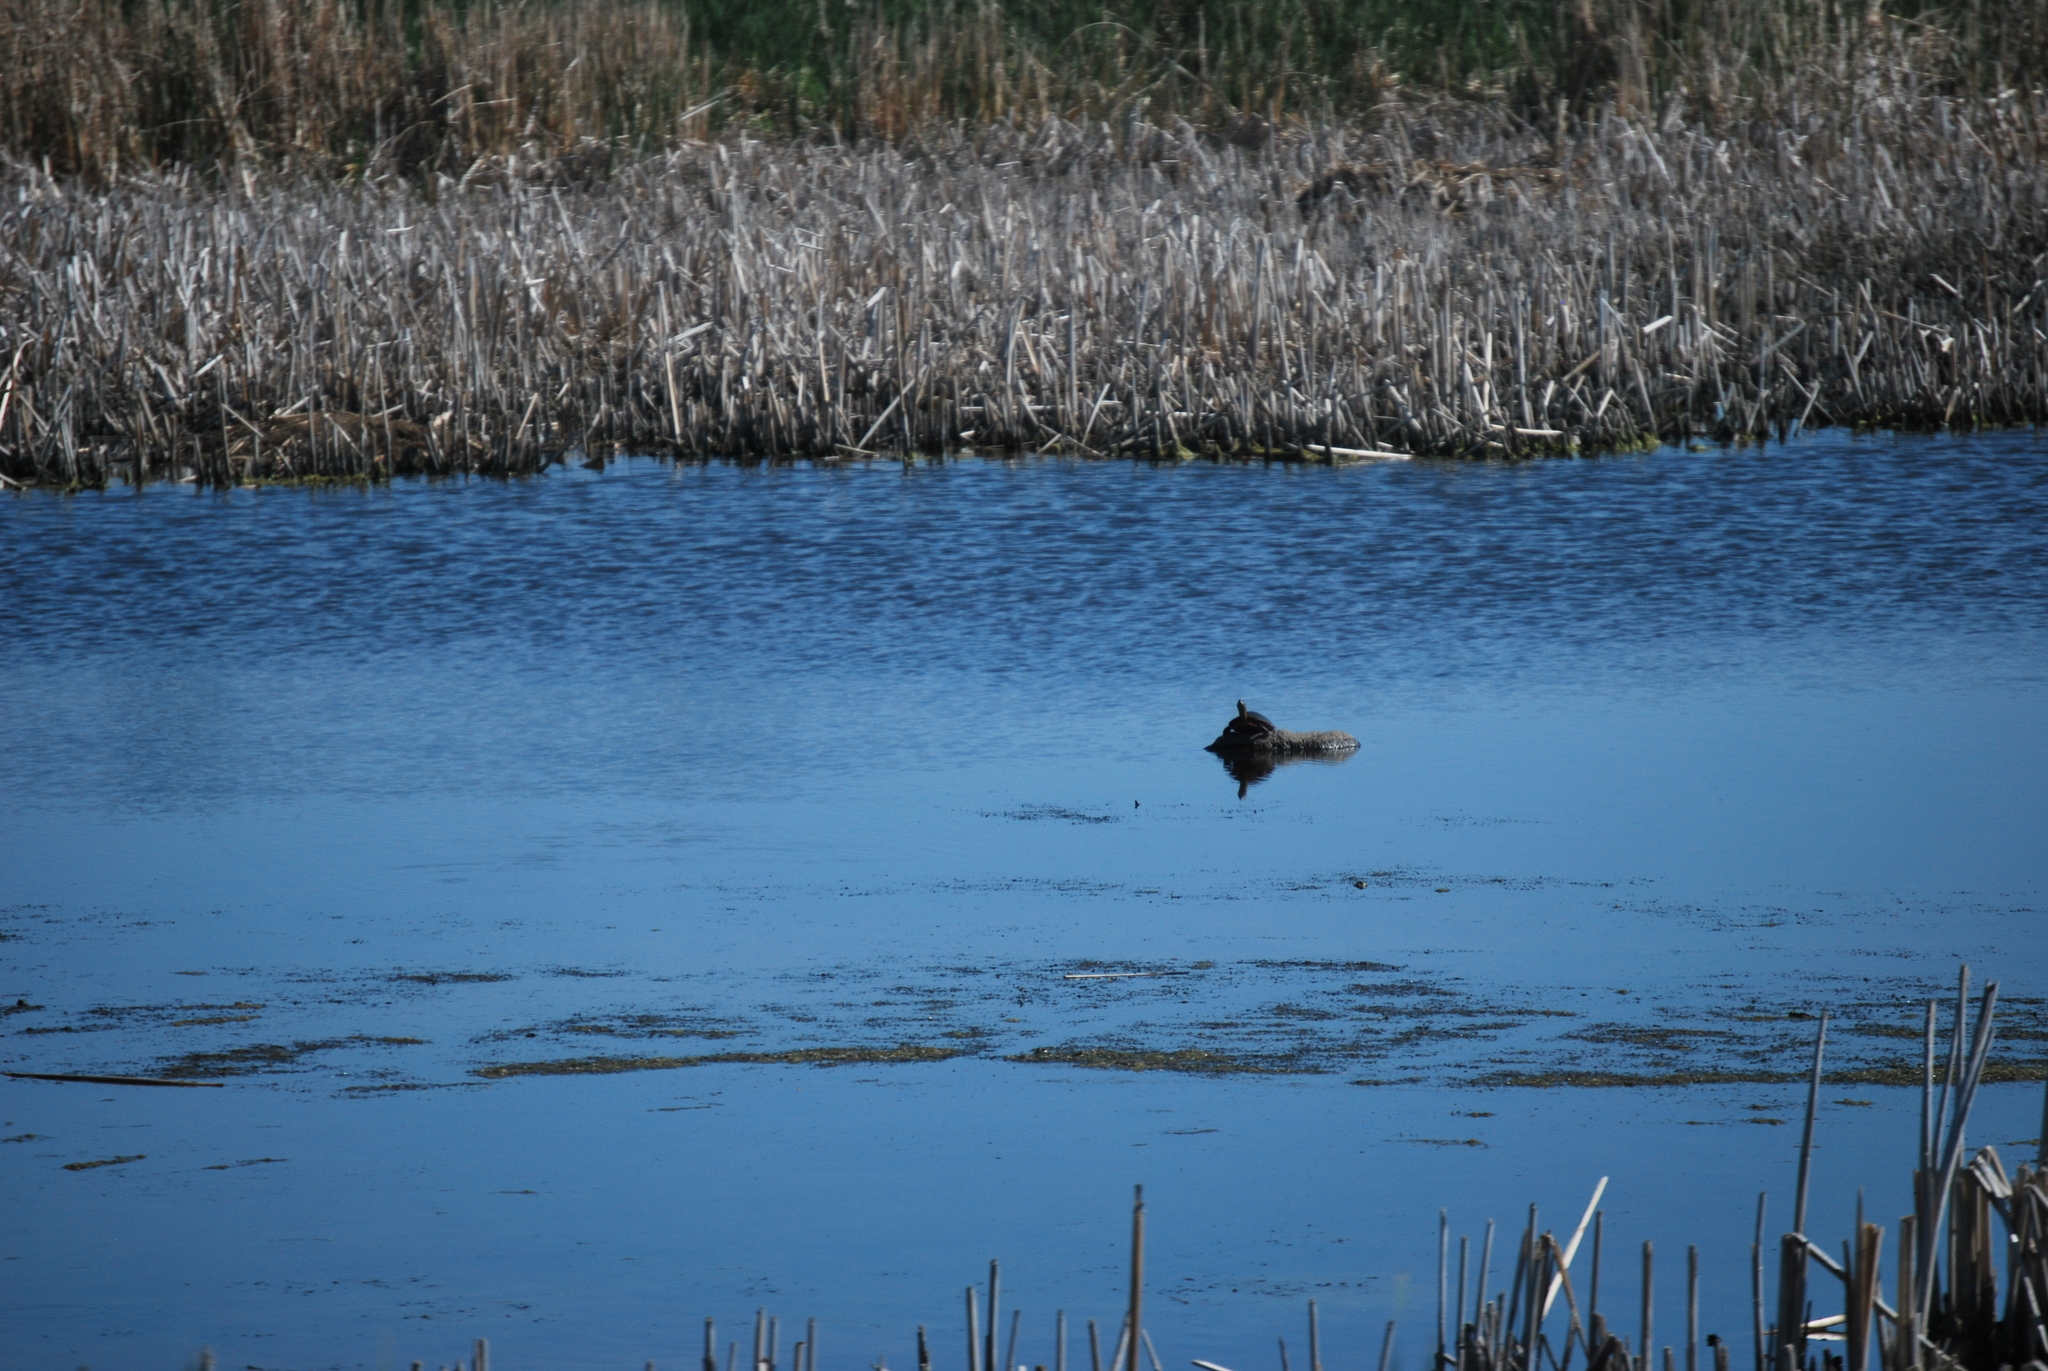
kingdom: Animalia
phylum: Chordata
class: Testudines
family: Emydidae
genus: Chrysemys
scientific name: Chrysemys picta
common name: Painted turtle
